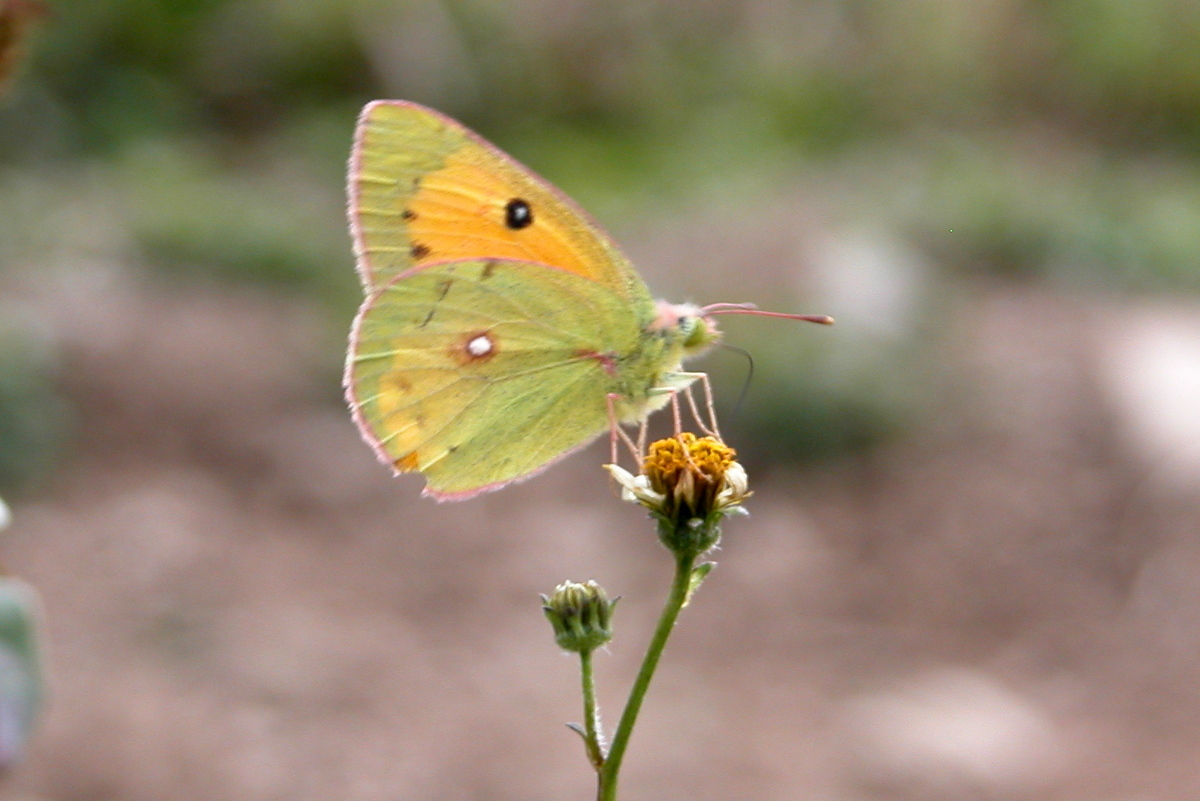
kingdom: Animalia
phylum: Arthropoda
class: Insecta
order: Lepidoptera
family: Pieridae
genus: Colias
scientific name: Colias fieldii
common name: Dark clouded yellow
